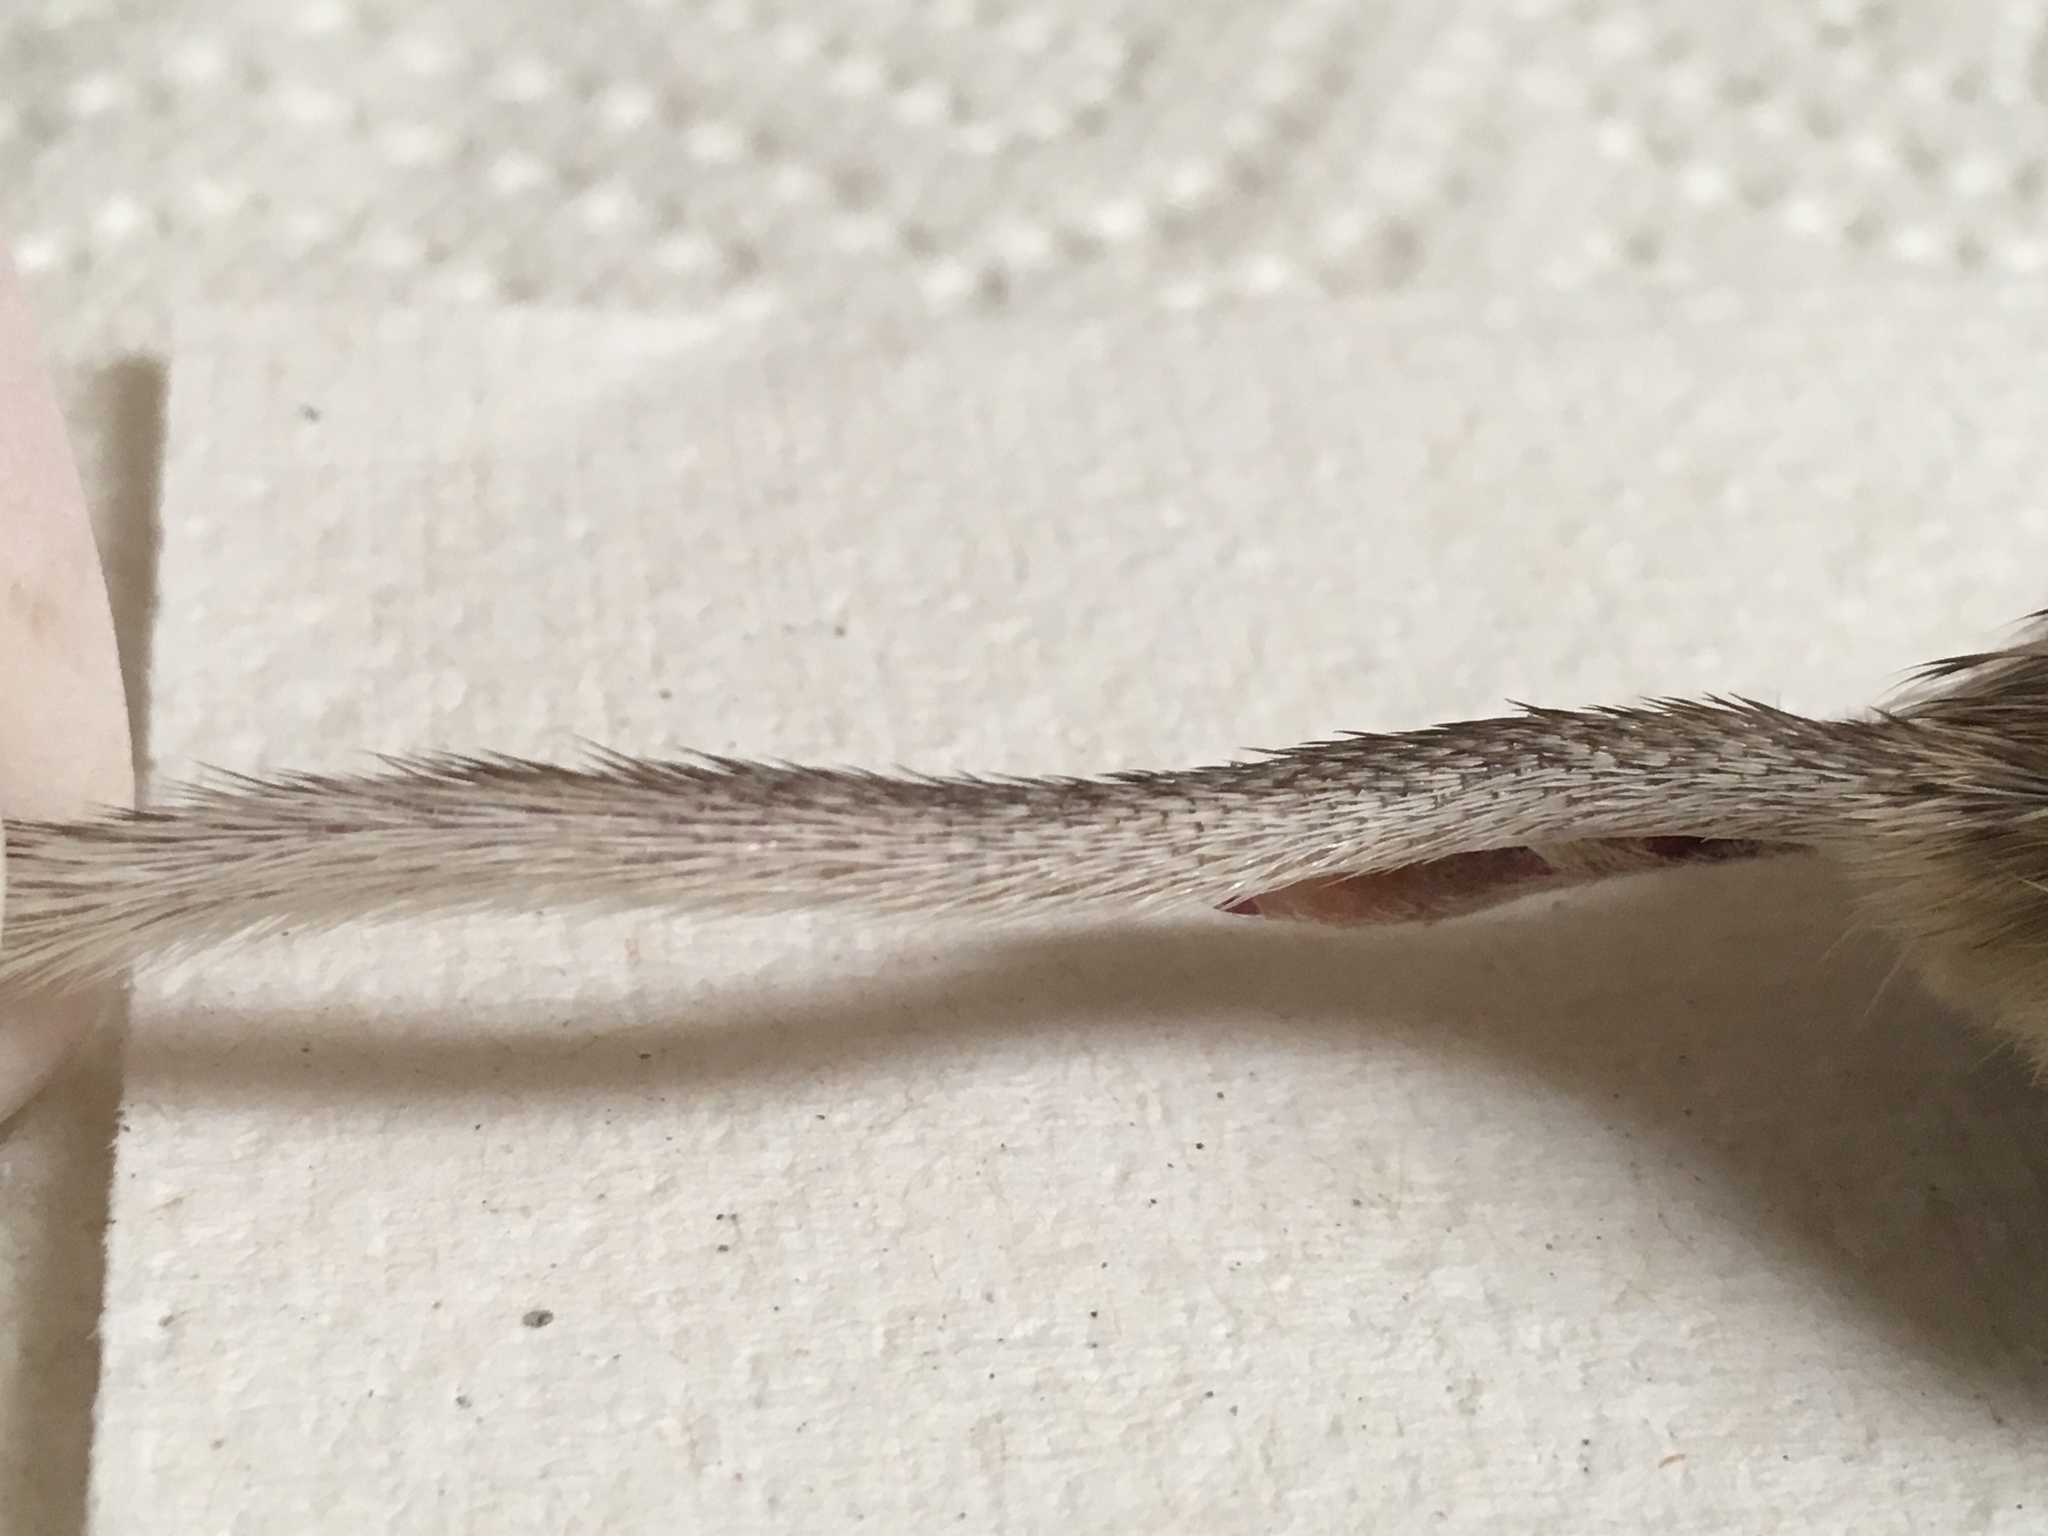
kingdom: Animalia
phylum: Chordata
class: Mammalia
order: Rodentia
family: Heteromyidae
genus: Chaetodipus
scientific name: Chaetodipus fallax
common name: San diego pocket mouse
